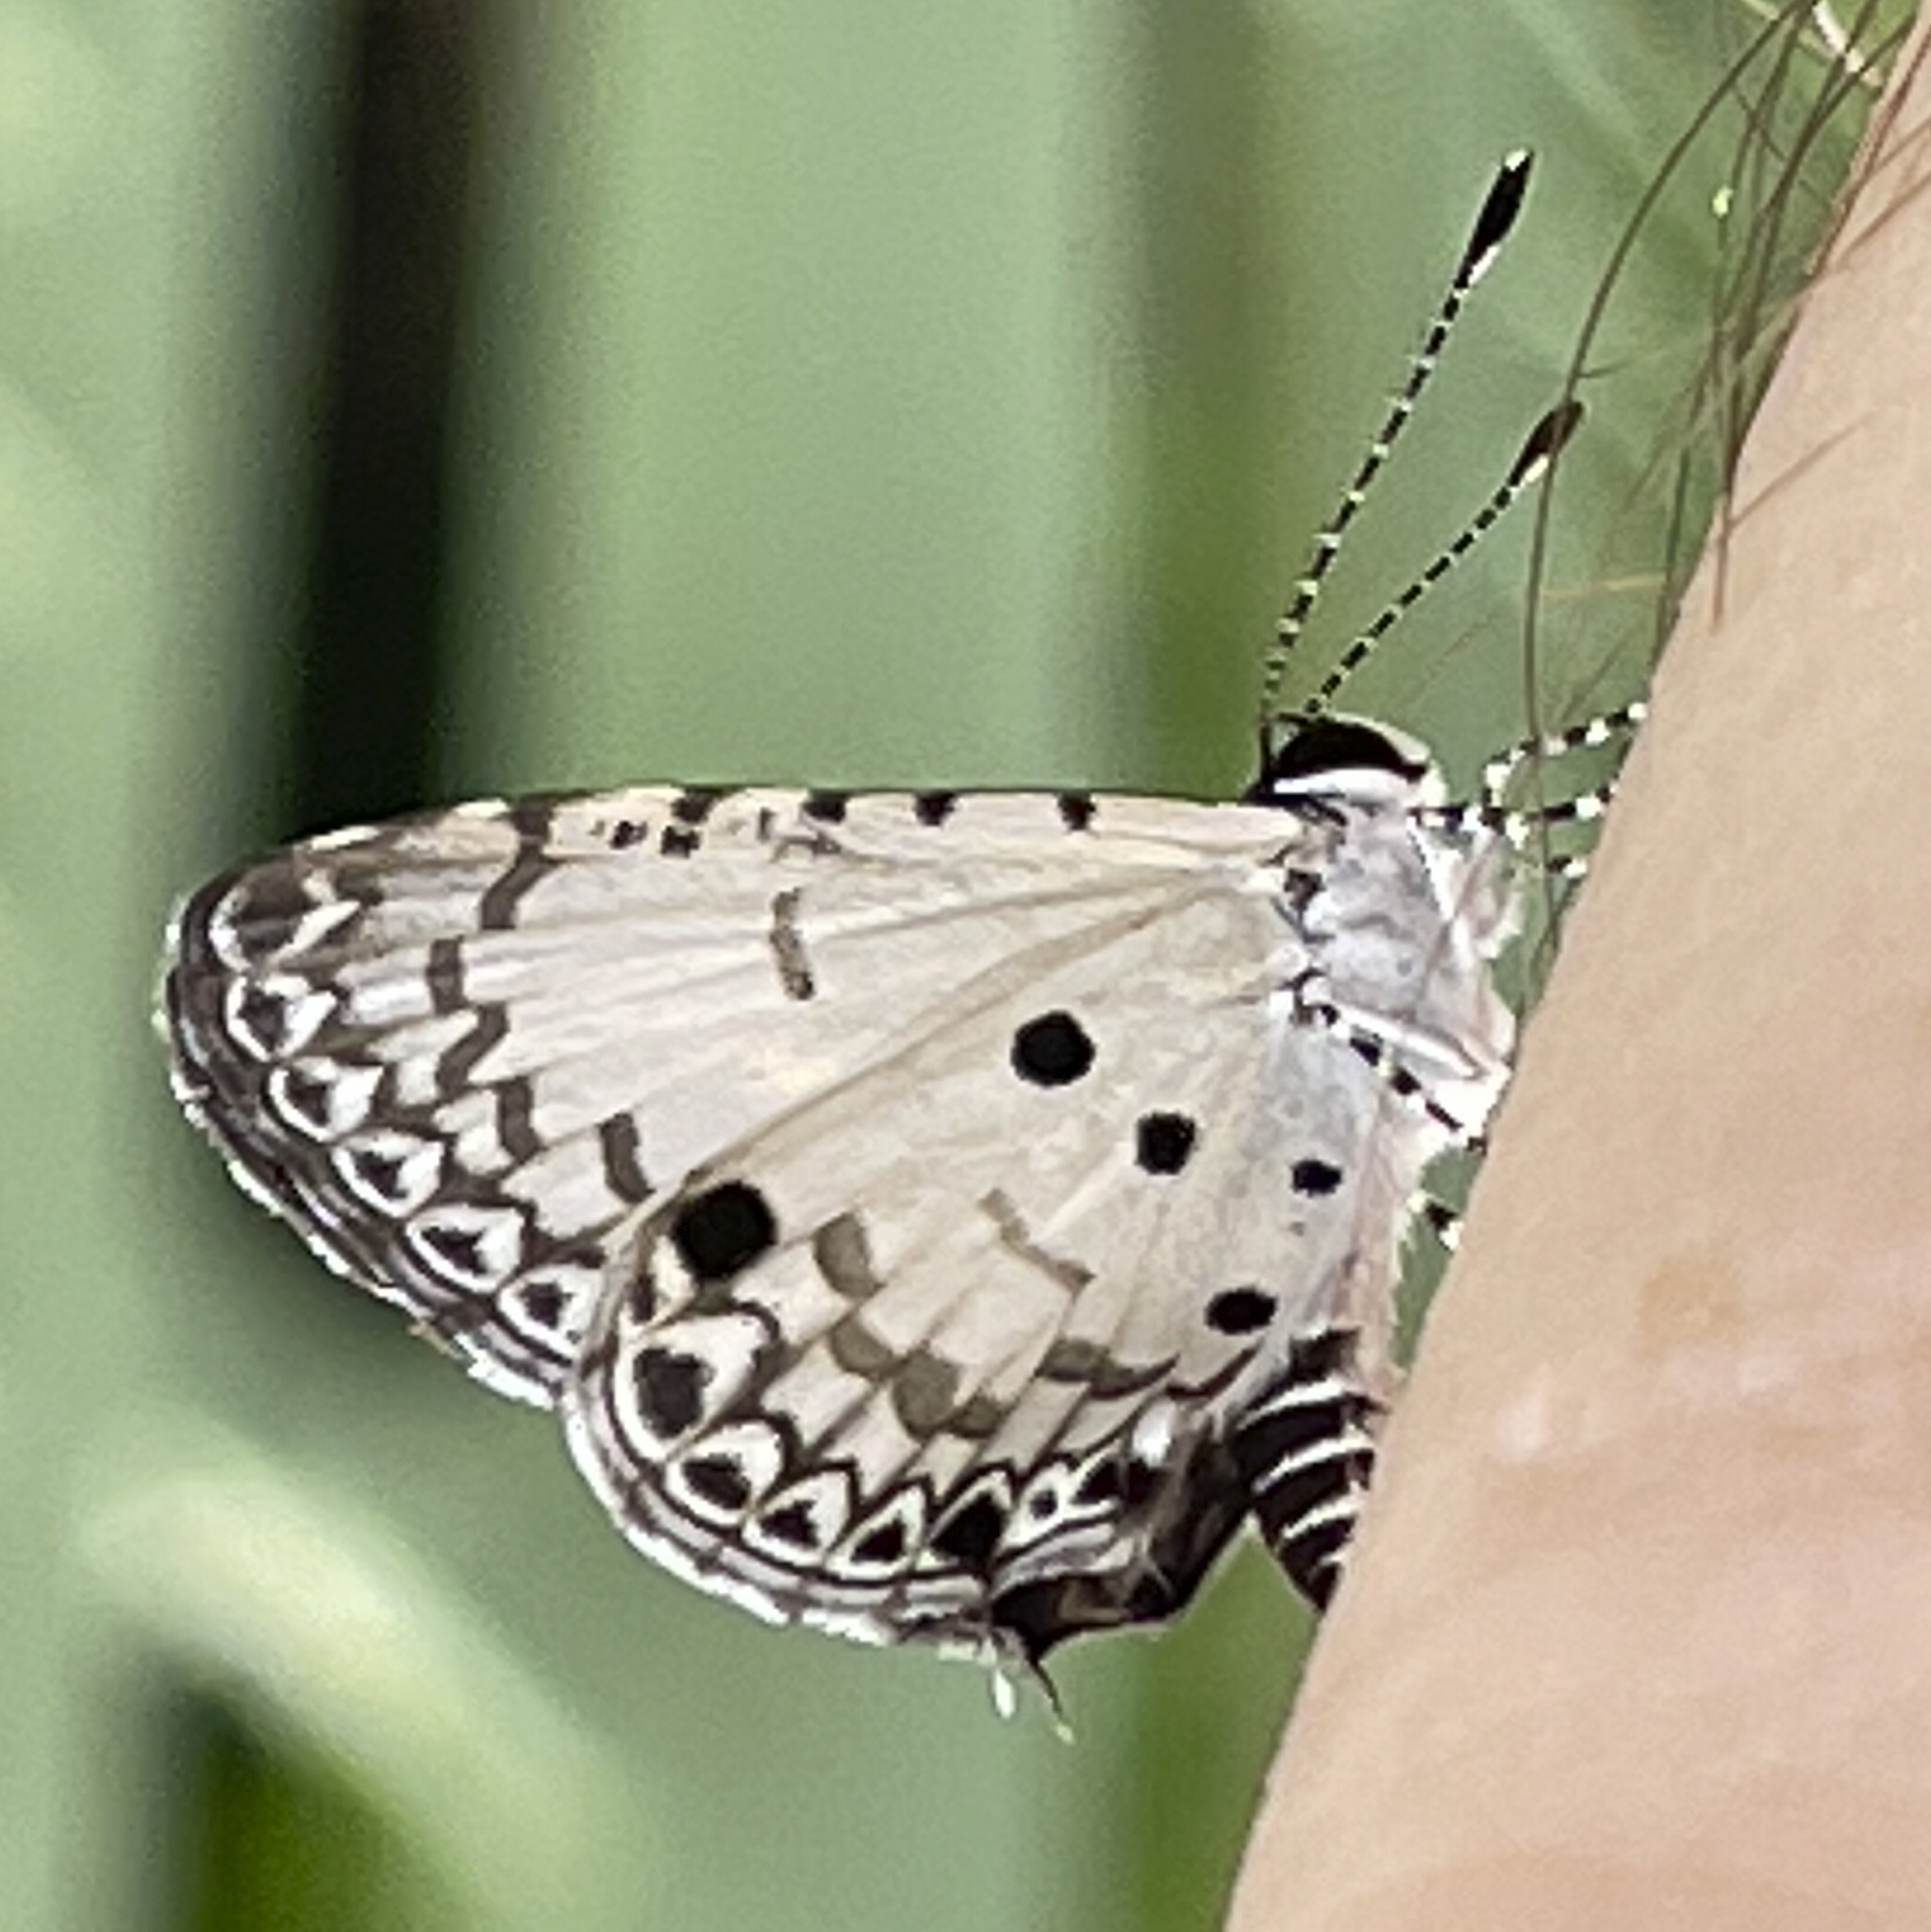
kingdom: Animalia
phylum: Arthropoda
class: Insecta
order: Lepidoptera
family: Lycaenidae
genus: Megisba
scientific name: Megisba malaya
